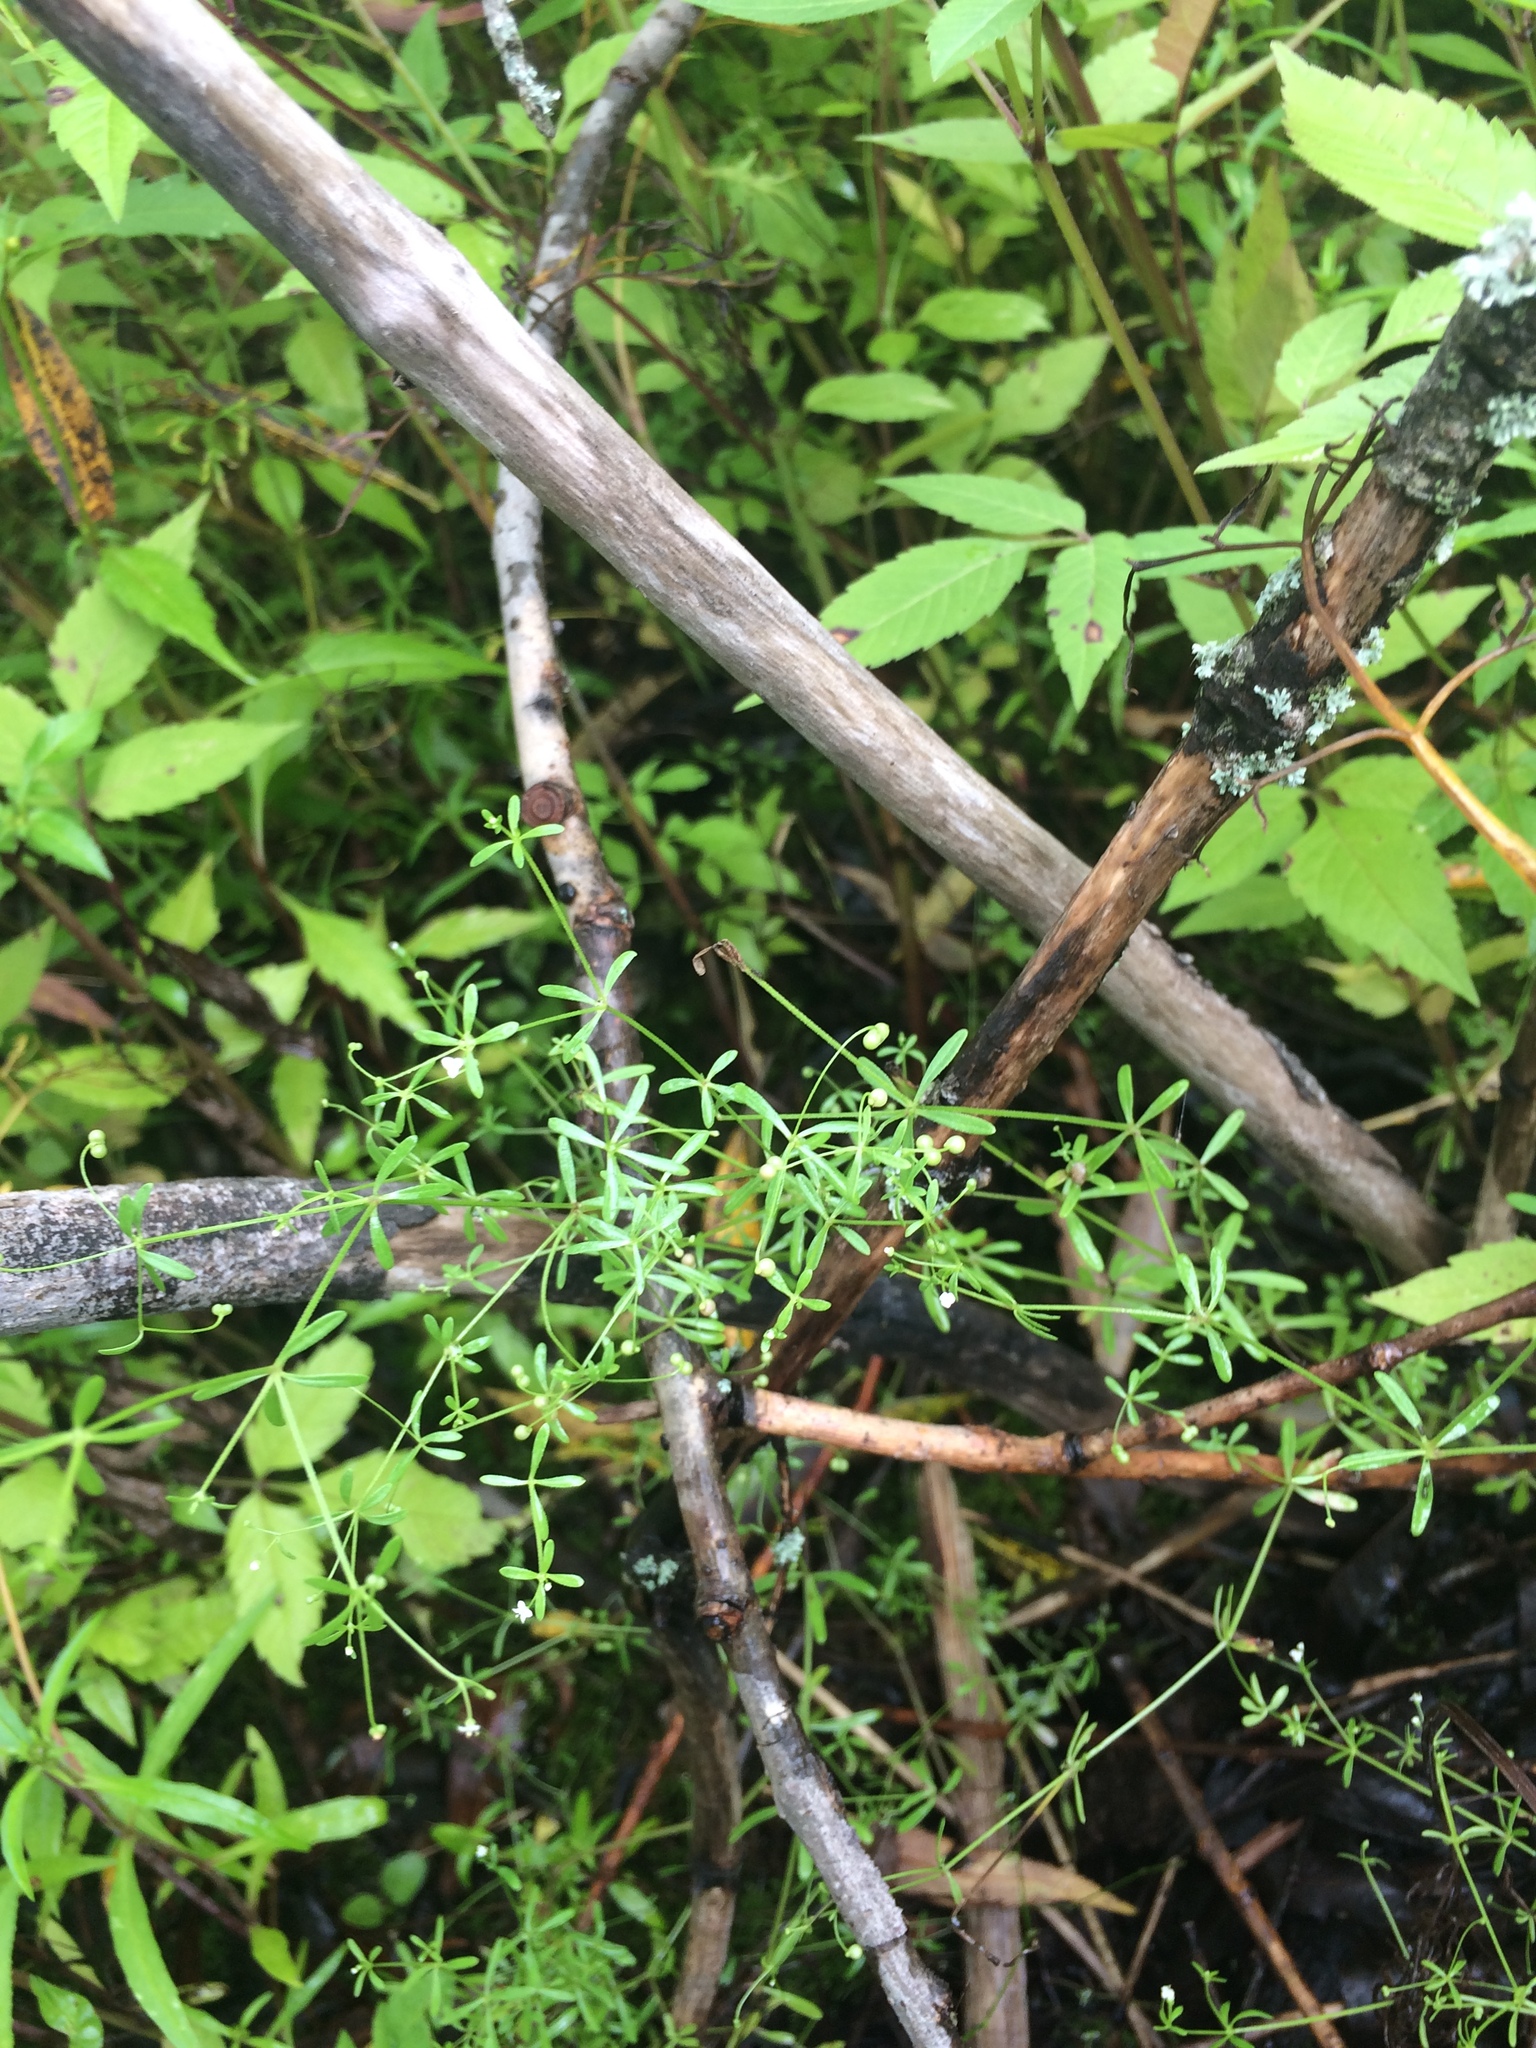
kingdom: Plantae
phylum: Tracheophyta
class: Magnoliopsida
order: Gentianales
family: Rubiaceae
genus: Galium
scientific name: Galium trifidum
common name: Small bedstraw
